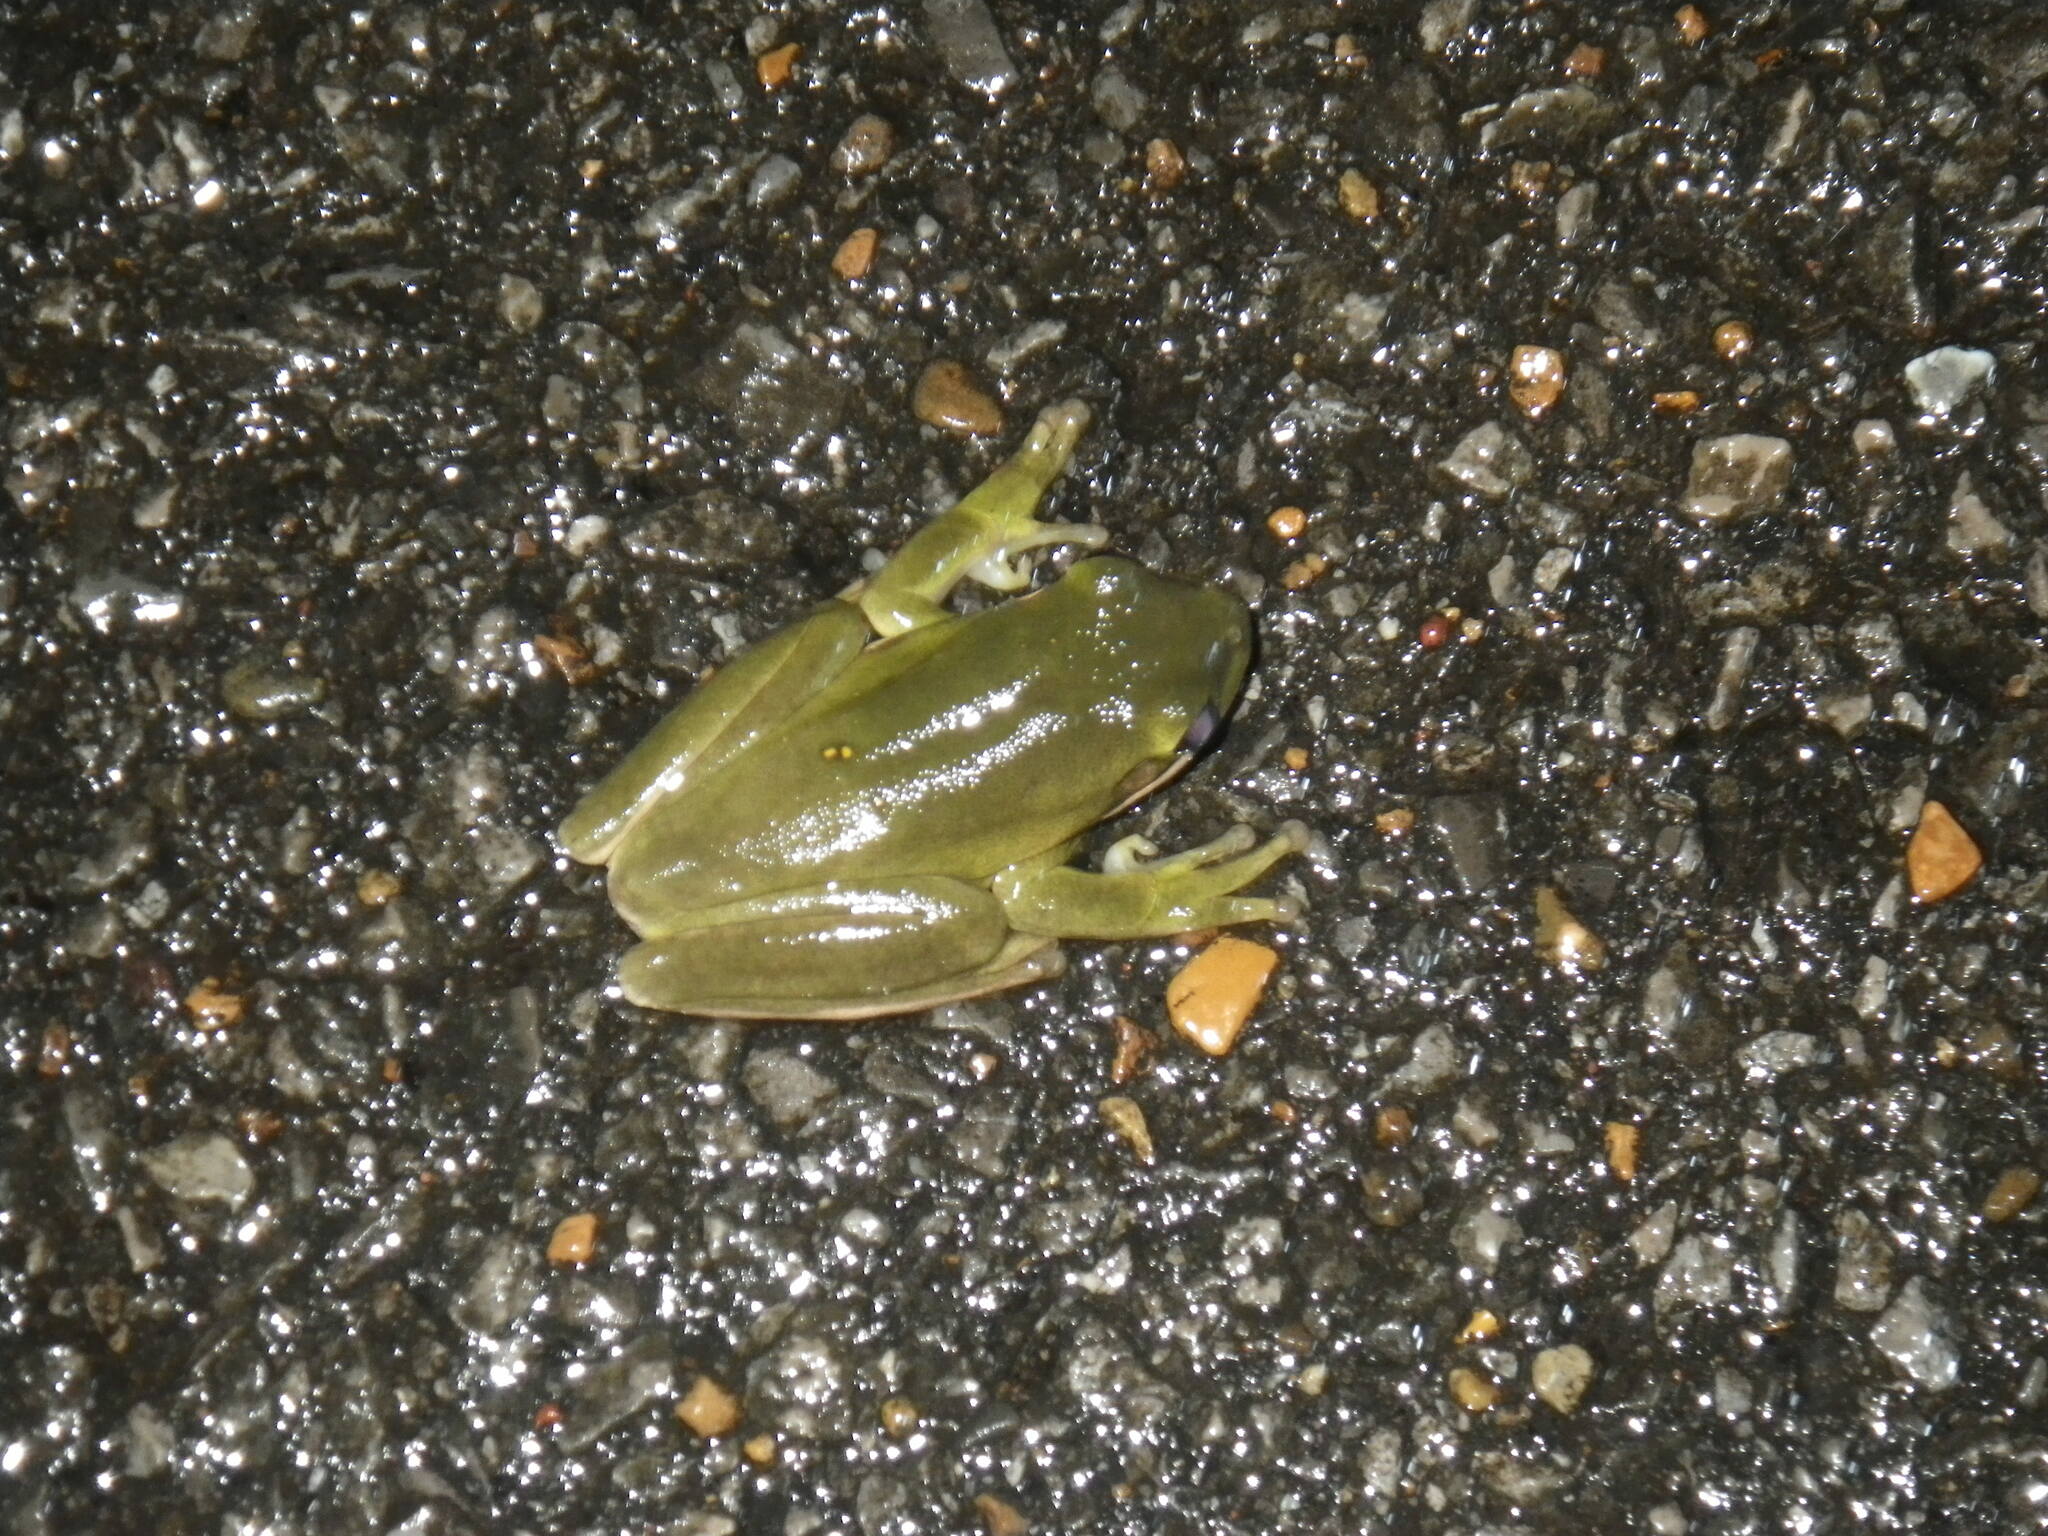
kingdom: Animalia
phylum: Chordata
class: Amphibia
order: Anura
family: Hylidae
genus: Dryophytes
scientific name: Dryophytes cinereus
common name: Green treefrog
